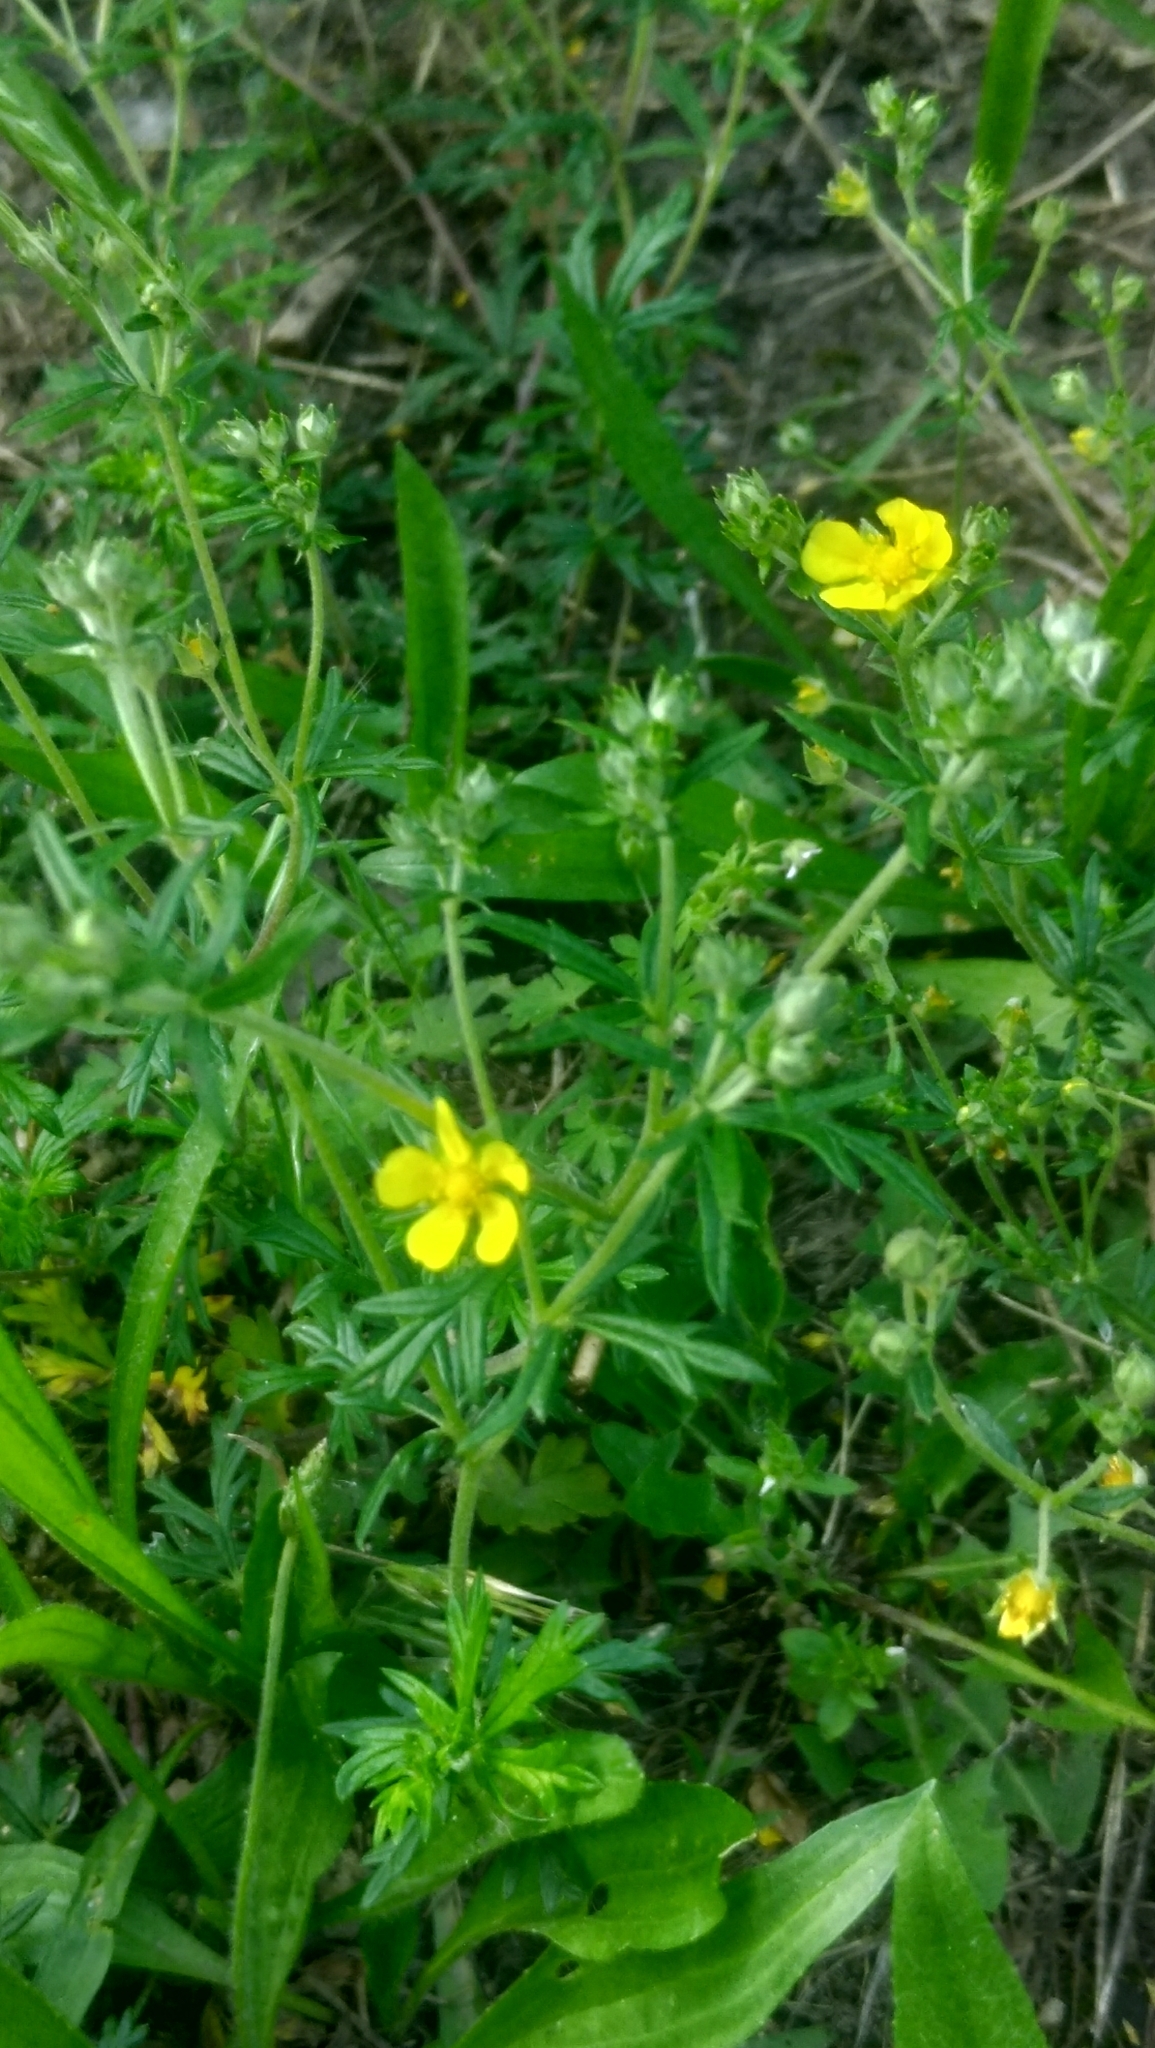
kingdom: Plantae
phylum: Tracheophyta
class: Magnoliopsida
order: Rosales
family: Rosaceae
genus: Potentilla
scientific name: Potentilla argentea
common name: Hoary cinquefoil
